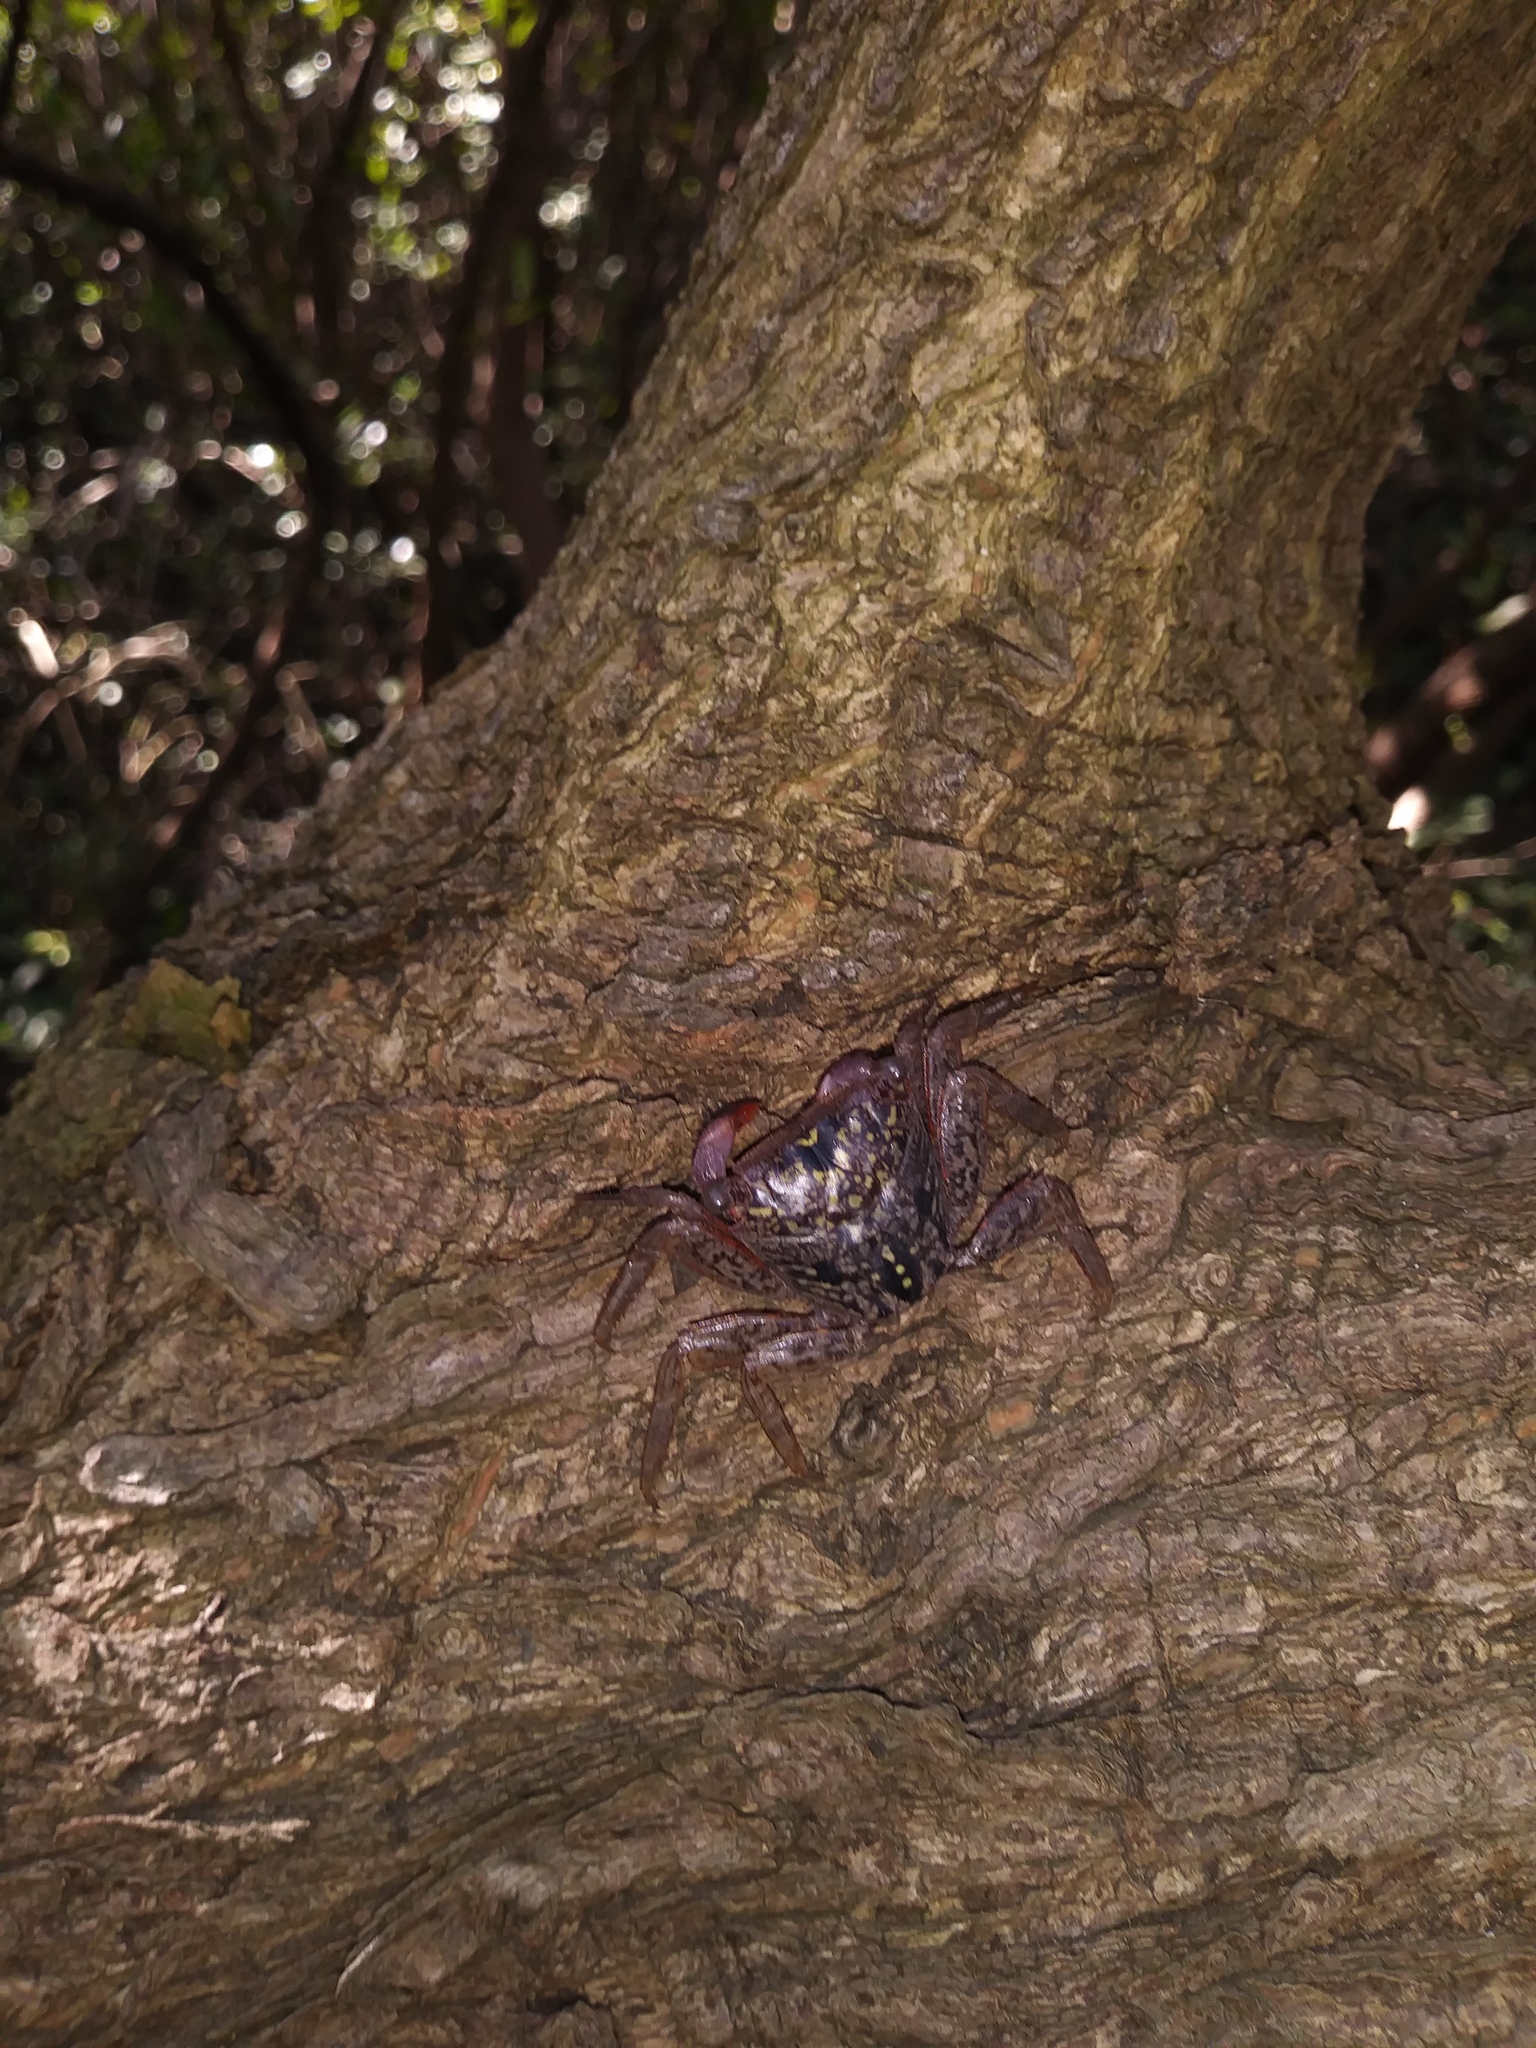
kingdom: Animalia
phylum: Arthropoda
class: Malacostraca
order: Decapoda
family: Sesarmidae
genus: Aratus
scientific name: Aratus pisonii
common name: Mangrove crab
